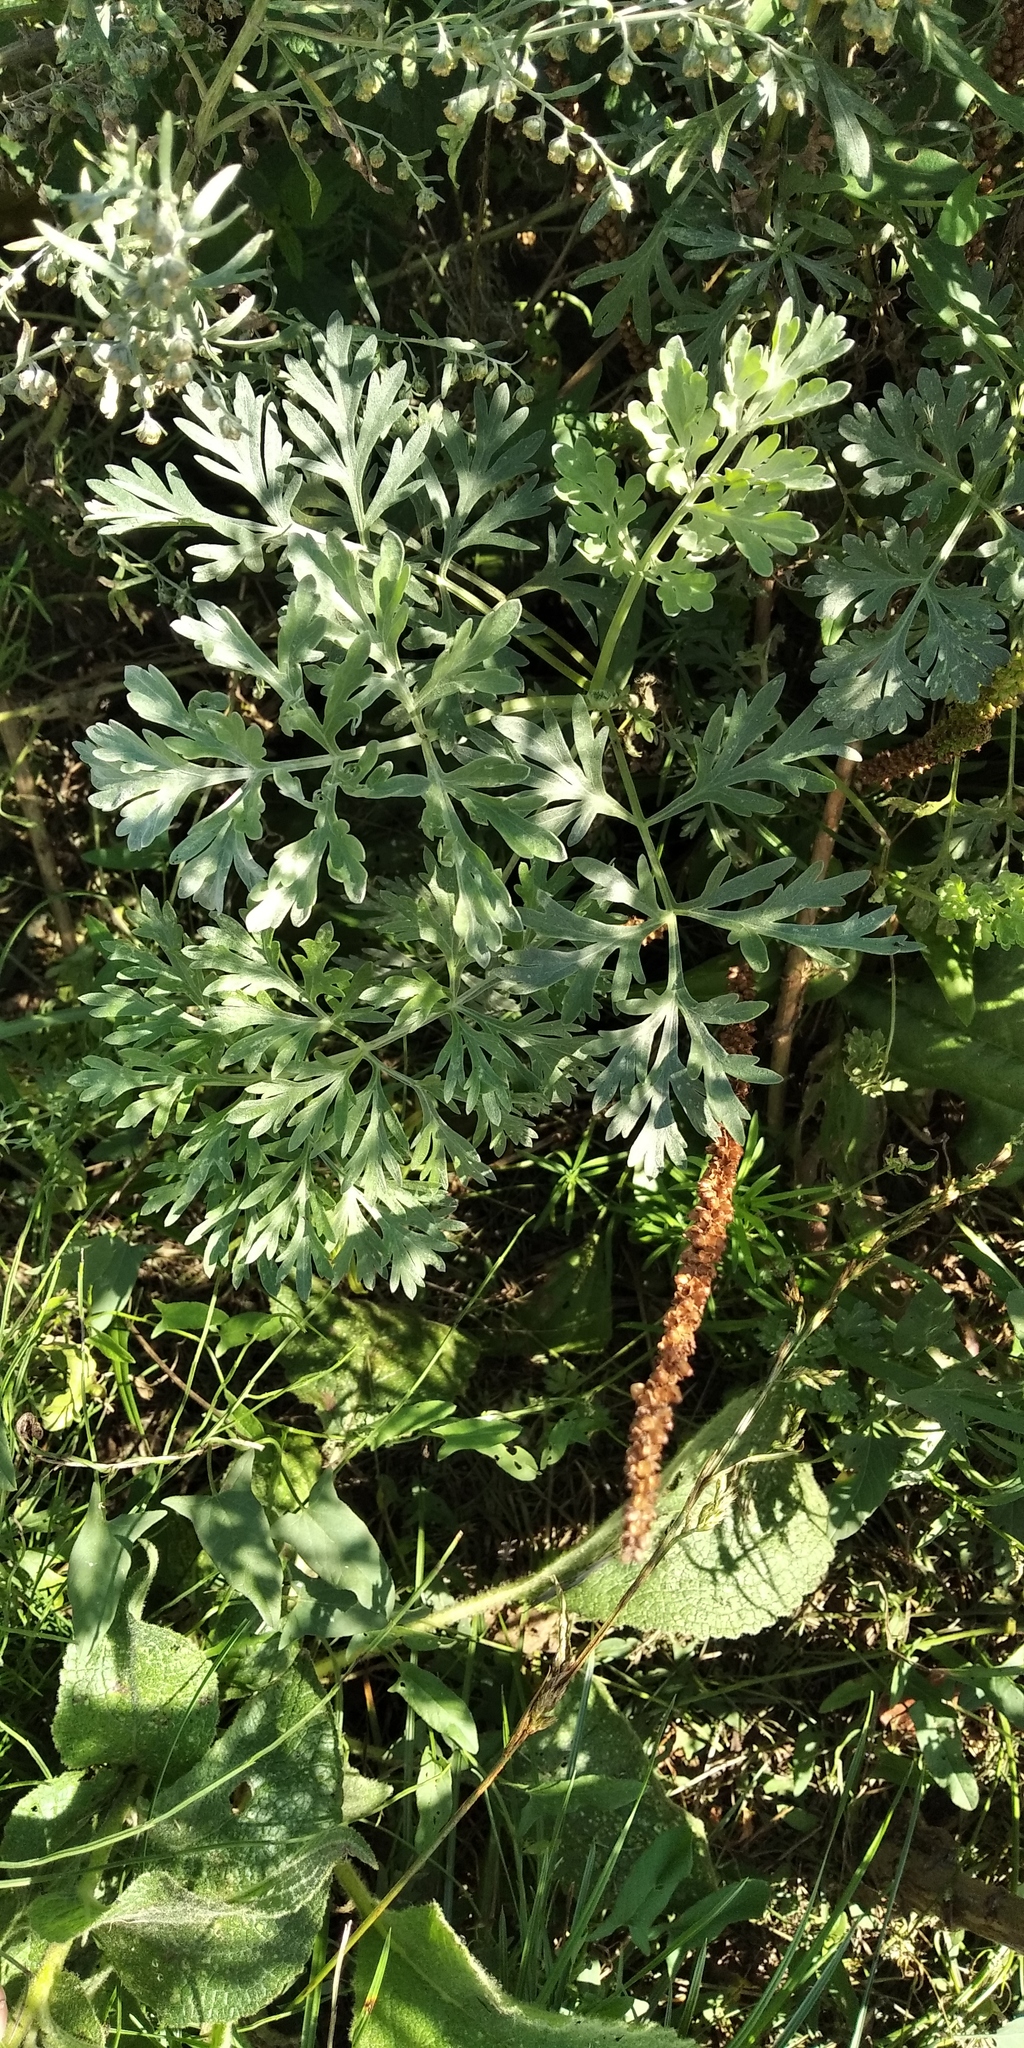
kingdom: Plantae
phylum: Tracheophyta
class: Magnoliopsida
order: Asterales
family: Asteraceae
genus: Artemisia
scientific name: Artemisia absinthium
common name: Wormwood
